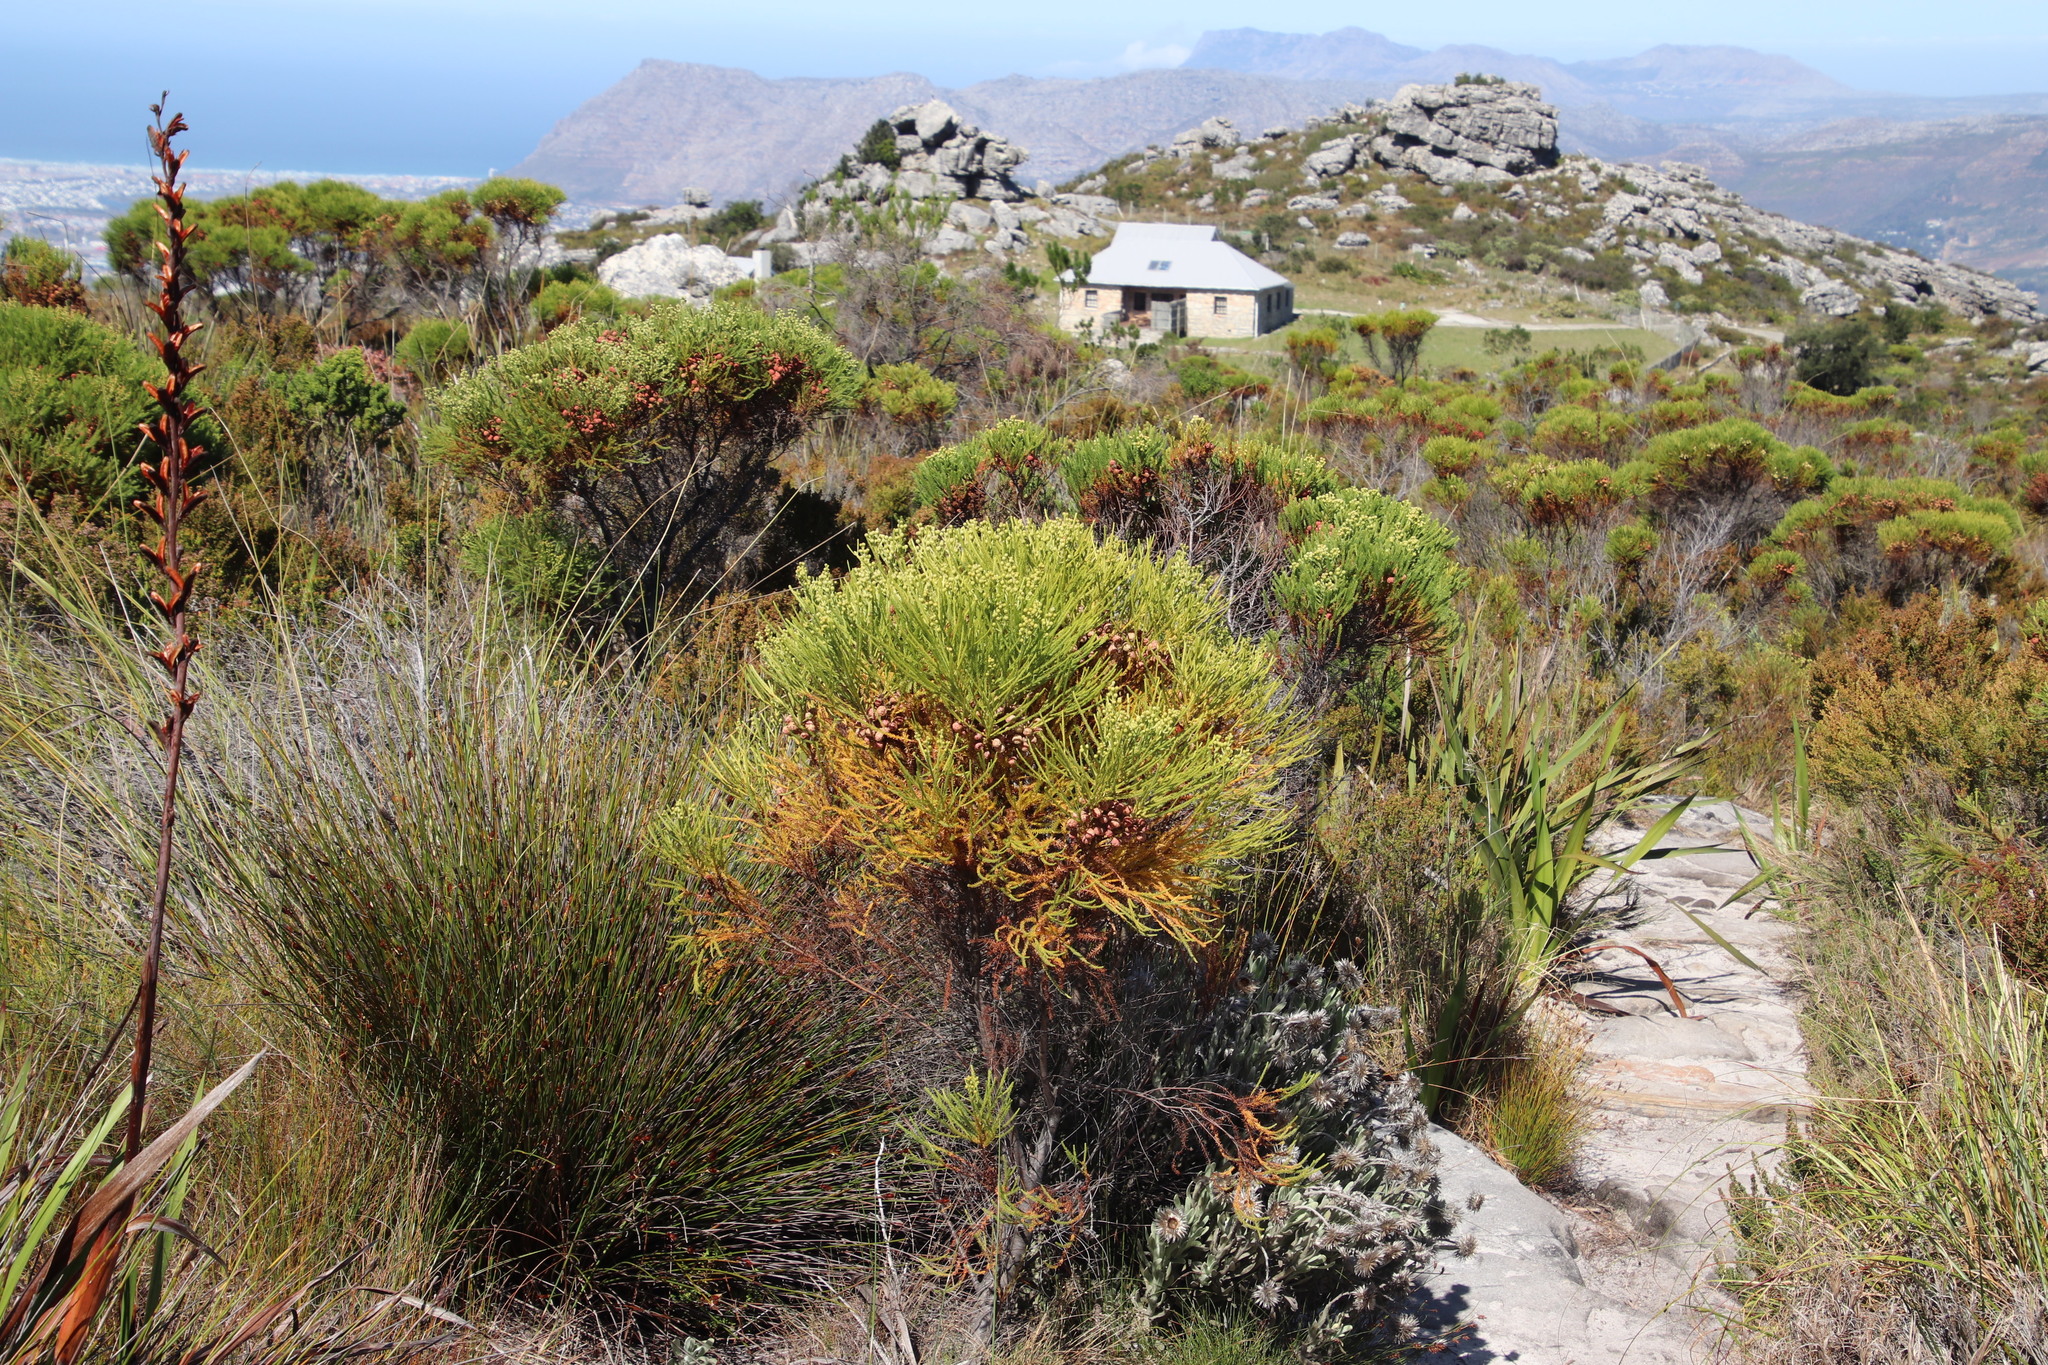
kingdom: Plantae
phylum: Tracheophyta
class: Magnoliopsida
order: Bruniales
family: Bruniaceae
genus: Berzelia
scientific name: Berzelia lanuginosa
